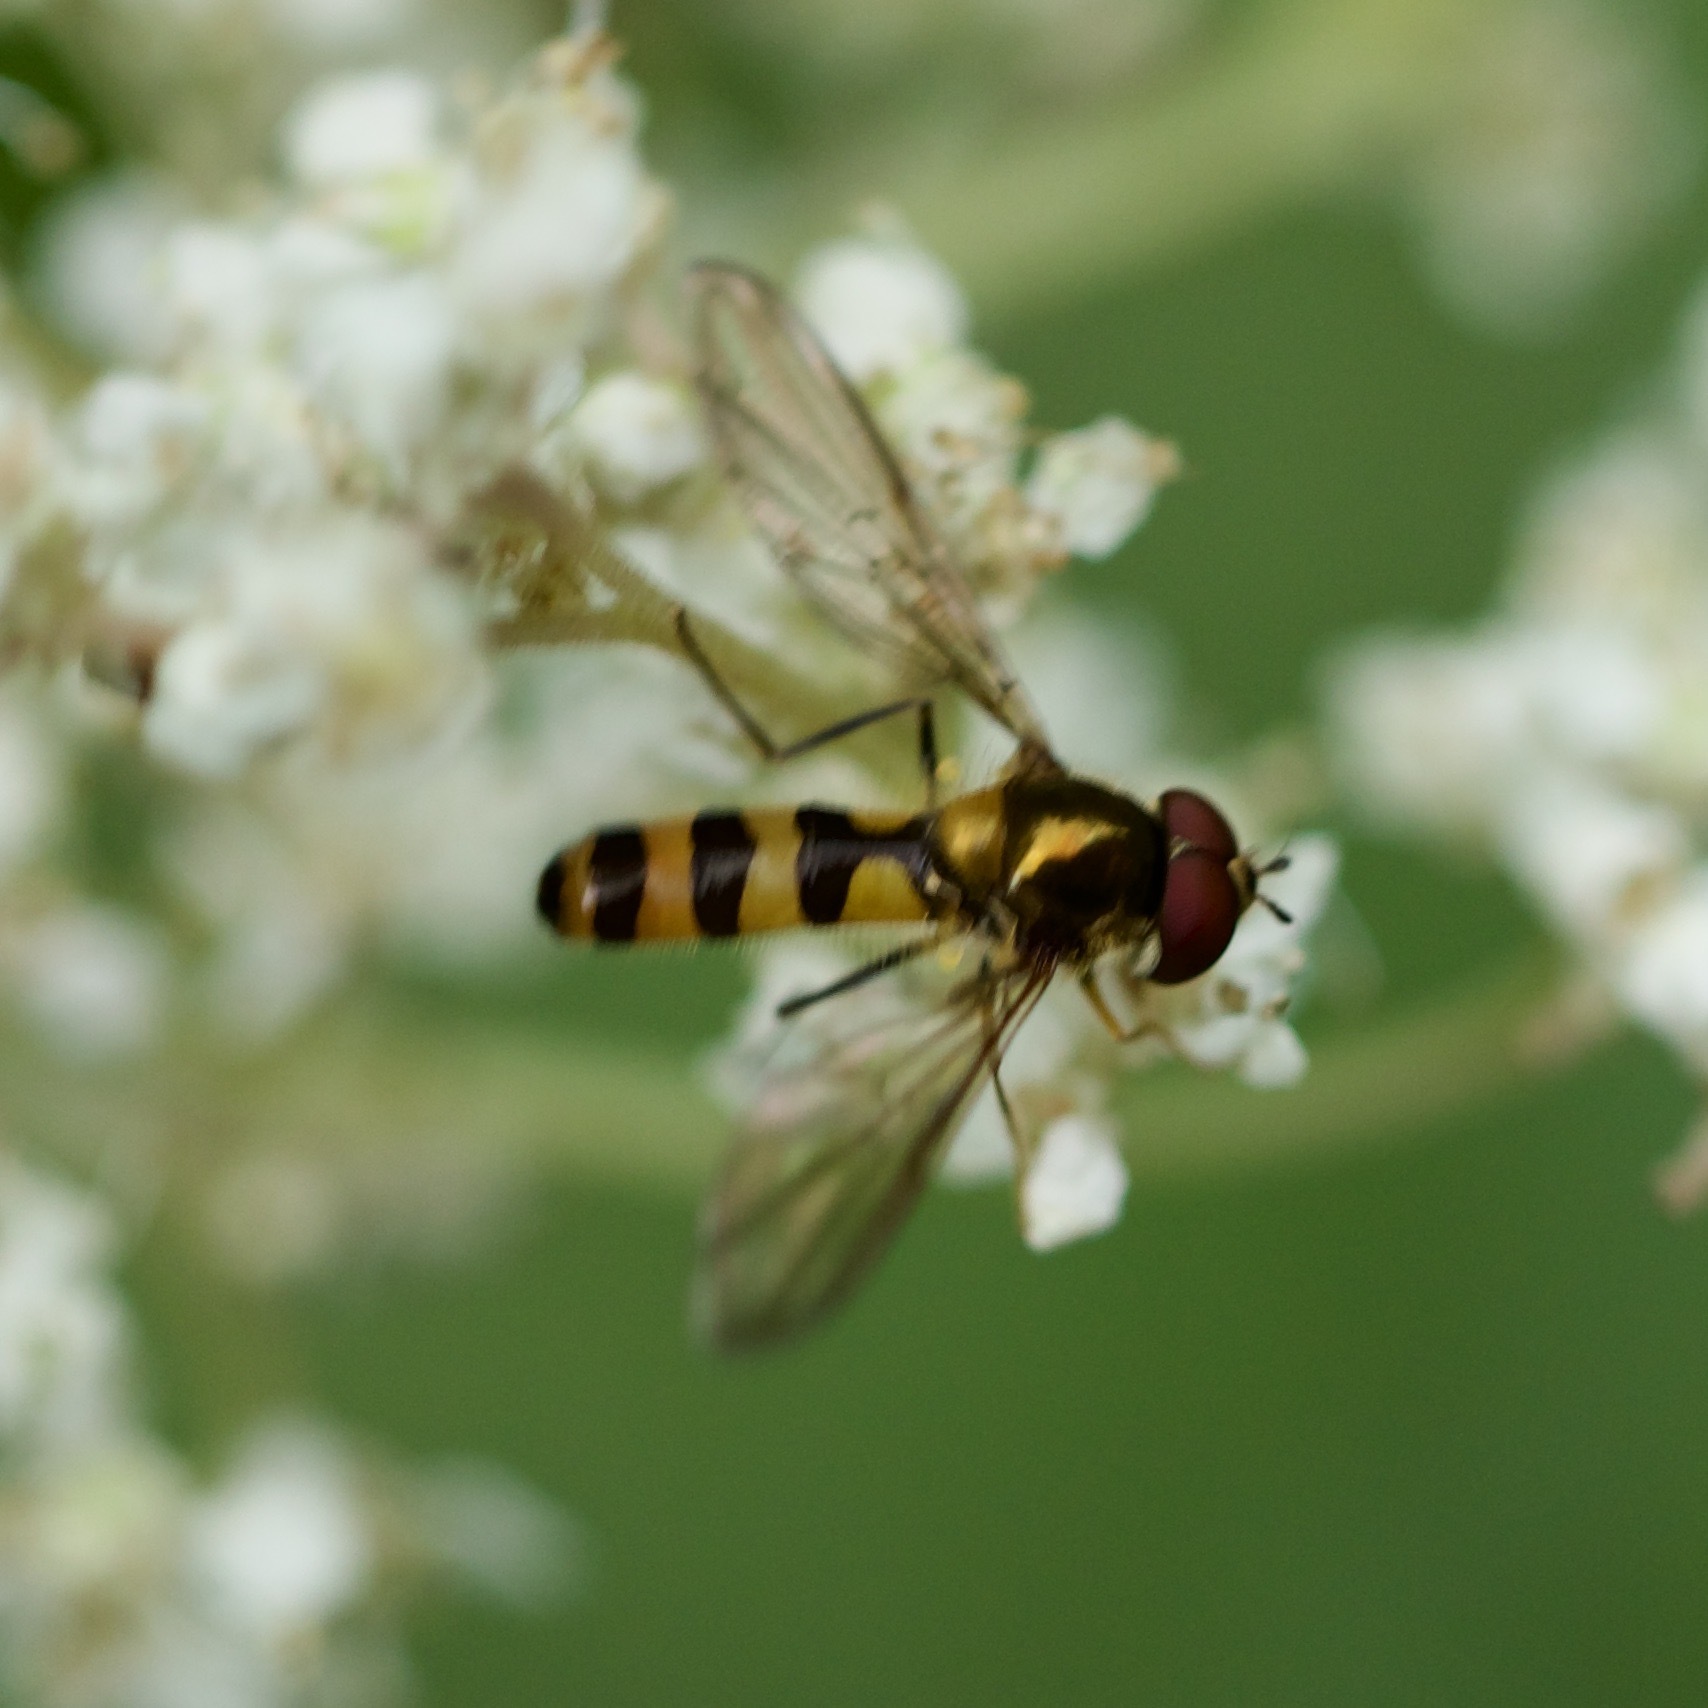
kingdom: Animalia
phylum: Arthropoda
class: Insecta
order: Diptera
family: Syrphidae
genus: Meliscaeva
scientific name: Meliscaeva cinctella
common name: American thintail fly
